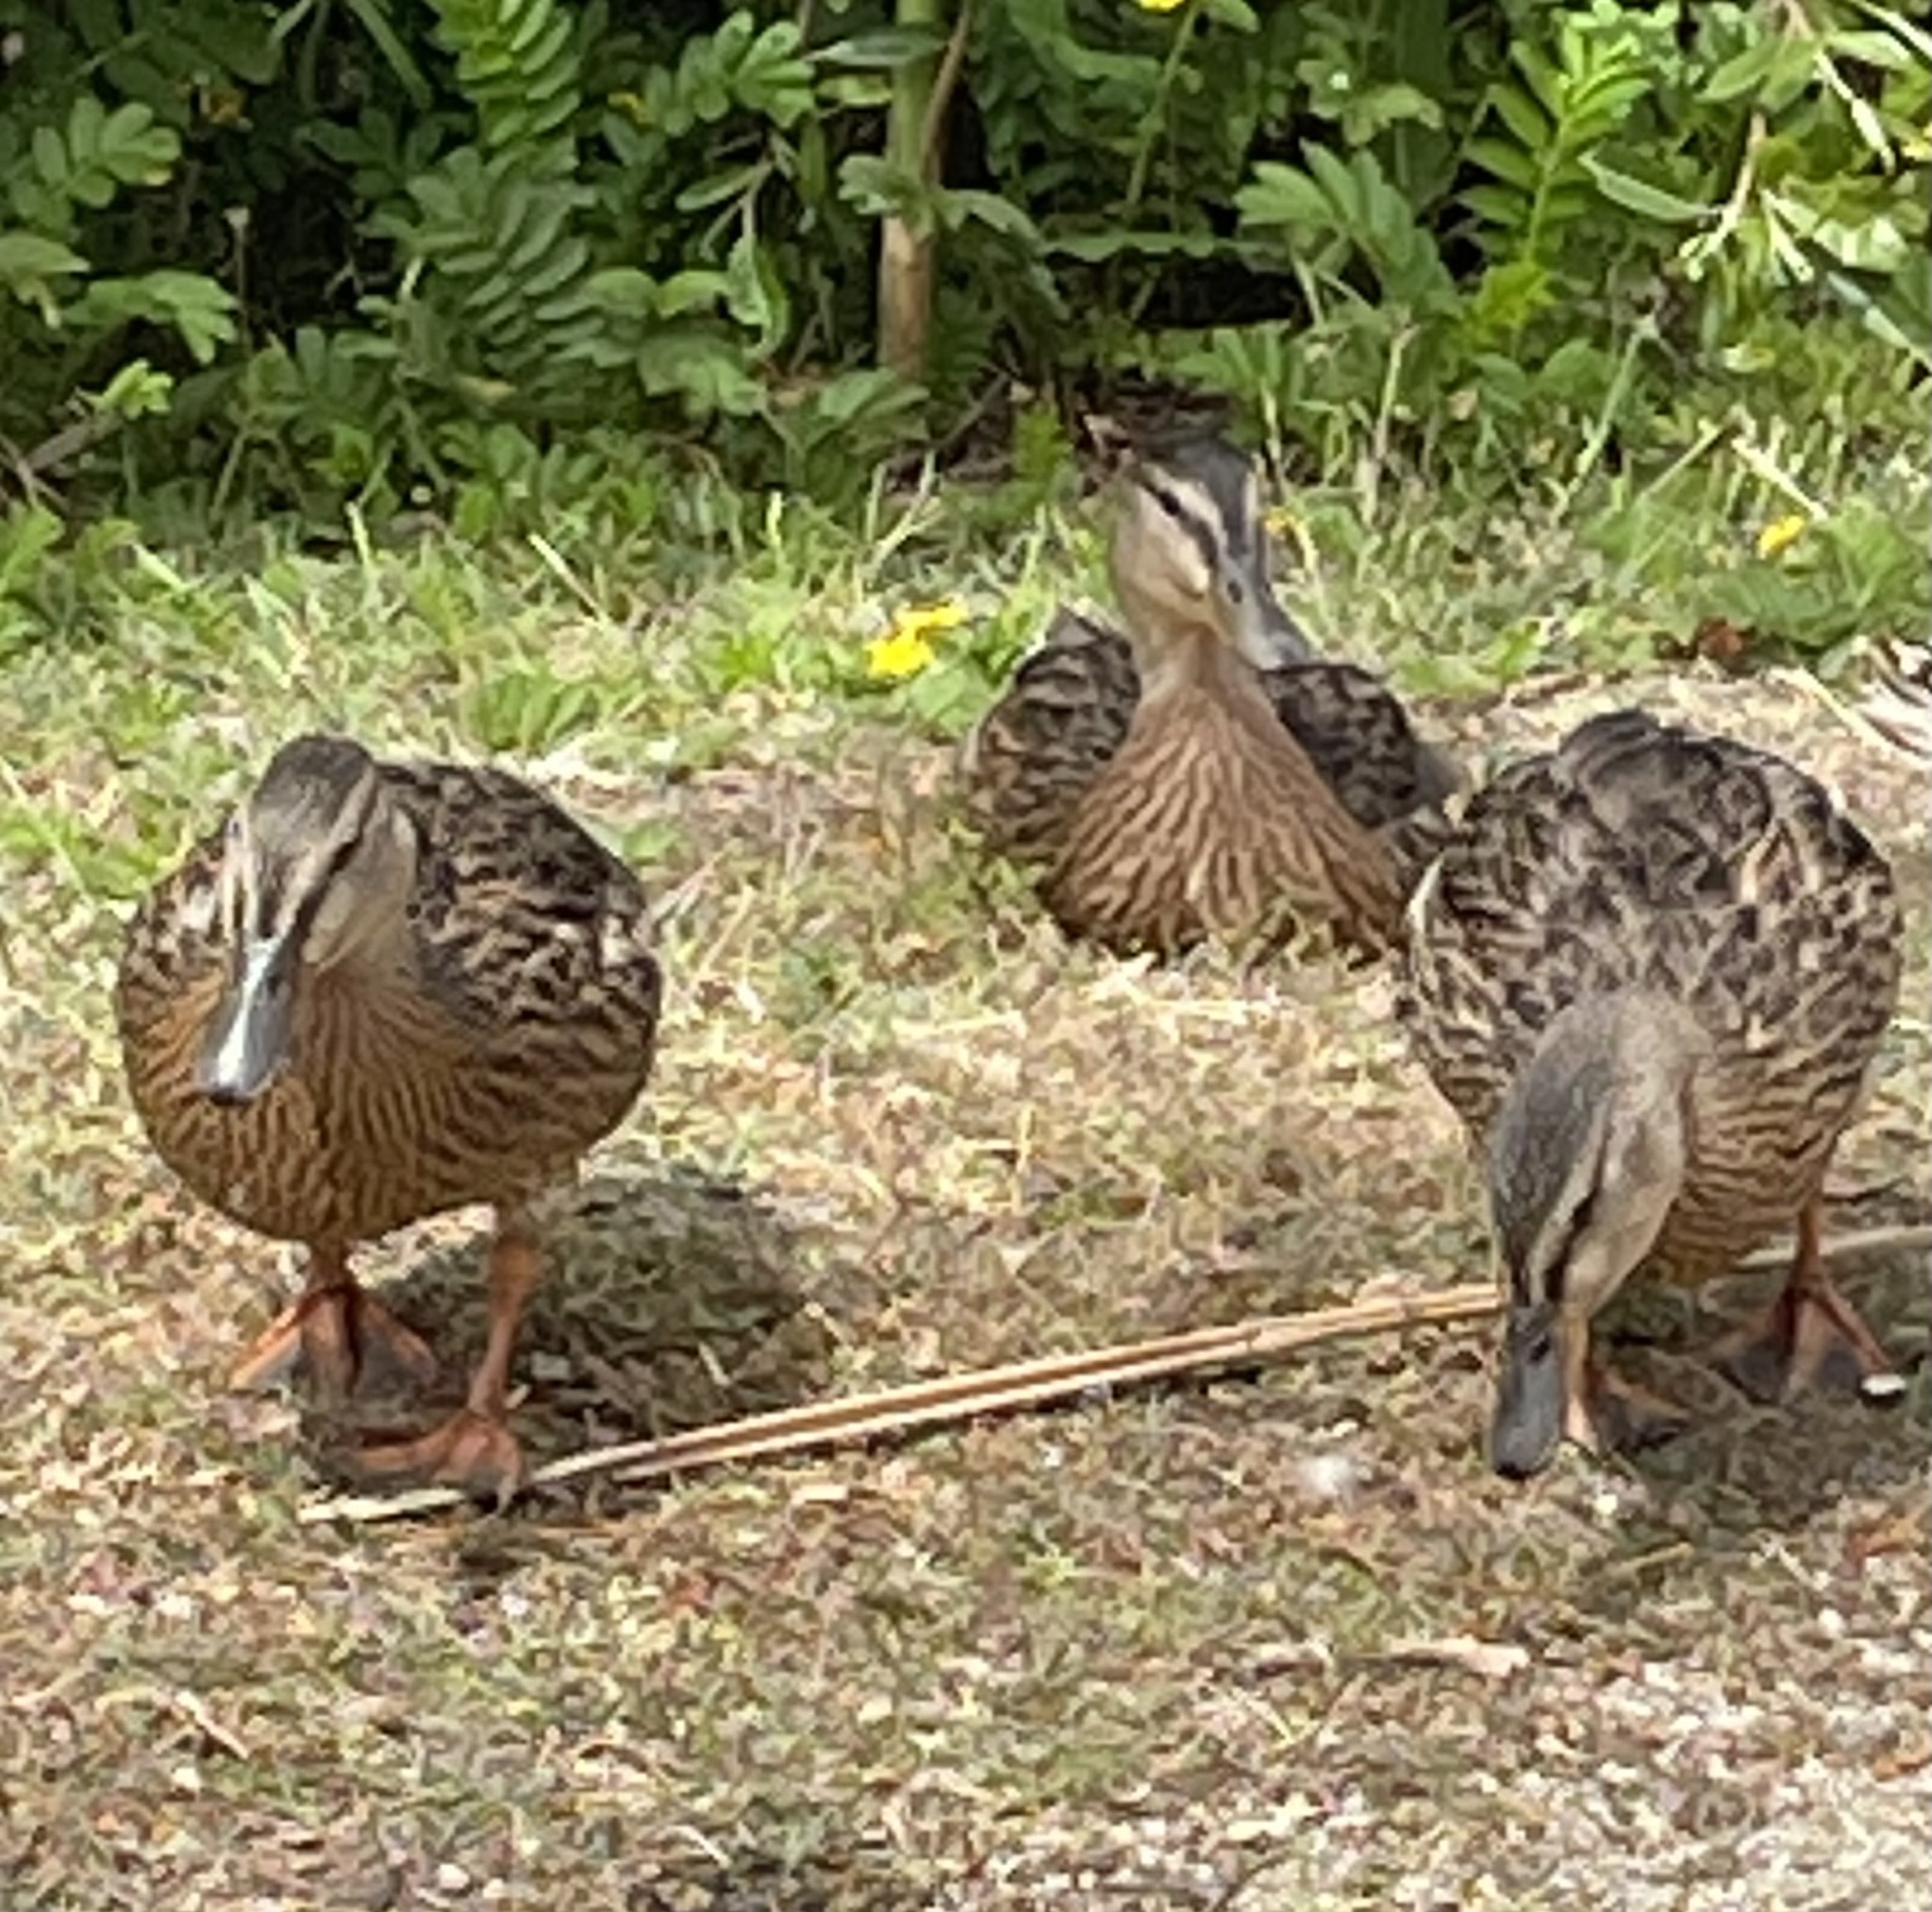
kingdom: Animalia
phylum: Chordata
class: Aves
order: Anseriformes
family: Anatidae
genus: Anas
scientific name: Anas platyrhynchos
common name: Mallard
